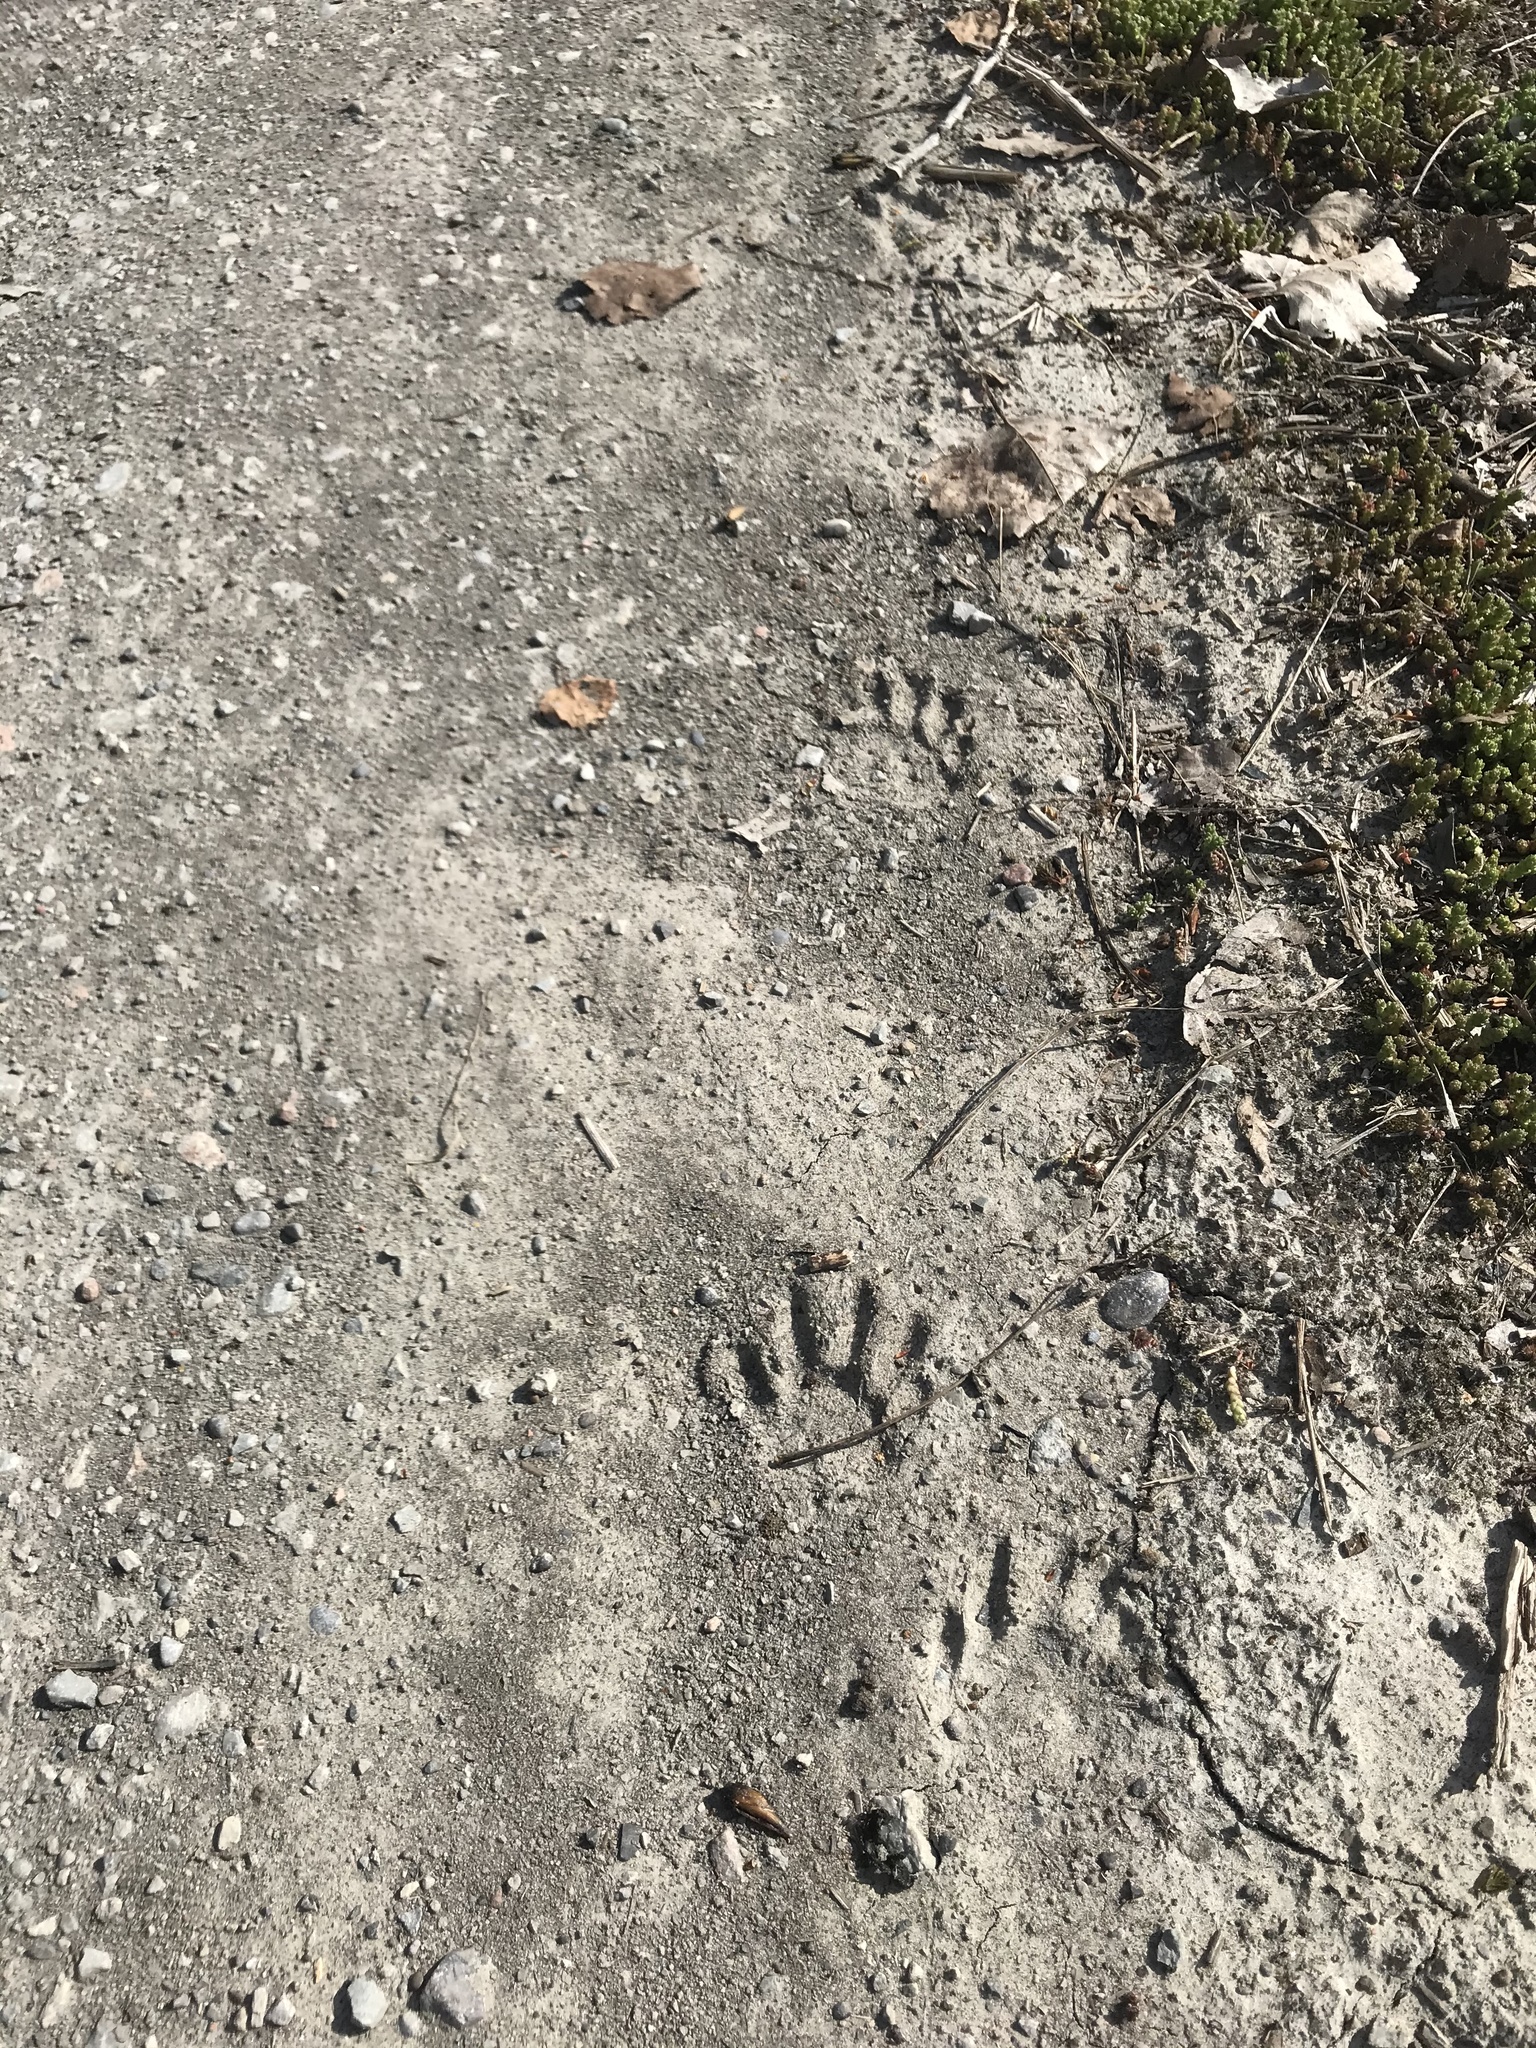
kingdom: Animalia
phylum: Chordata
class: Mammalia
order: Carnivora
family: Procyonidae
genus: Procyon
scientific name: Procyon lotor
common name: Raccoon
